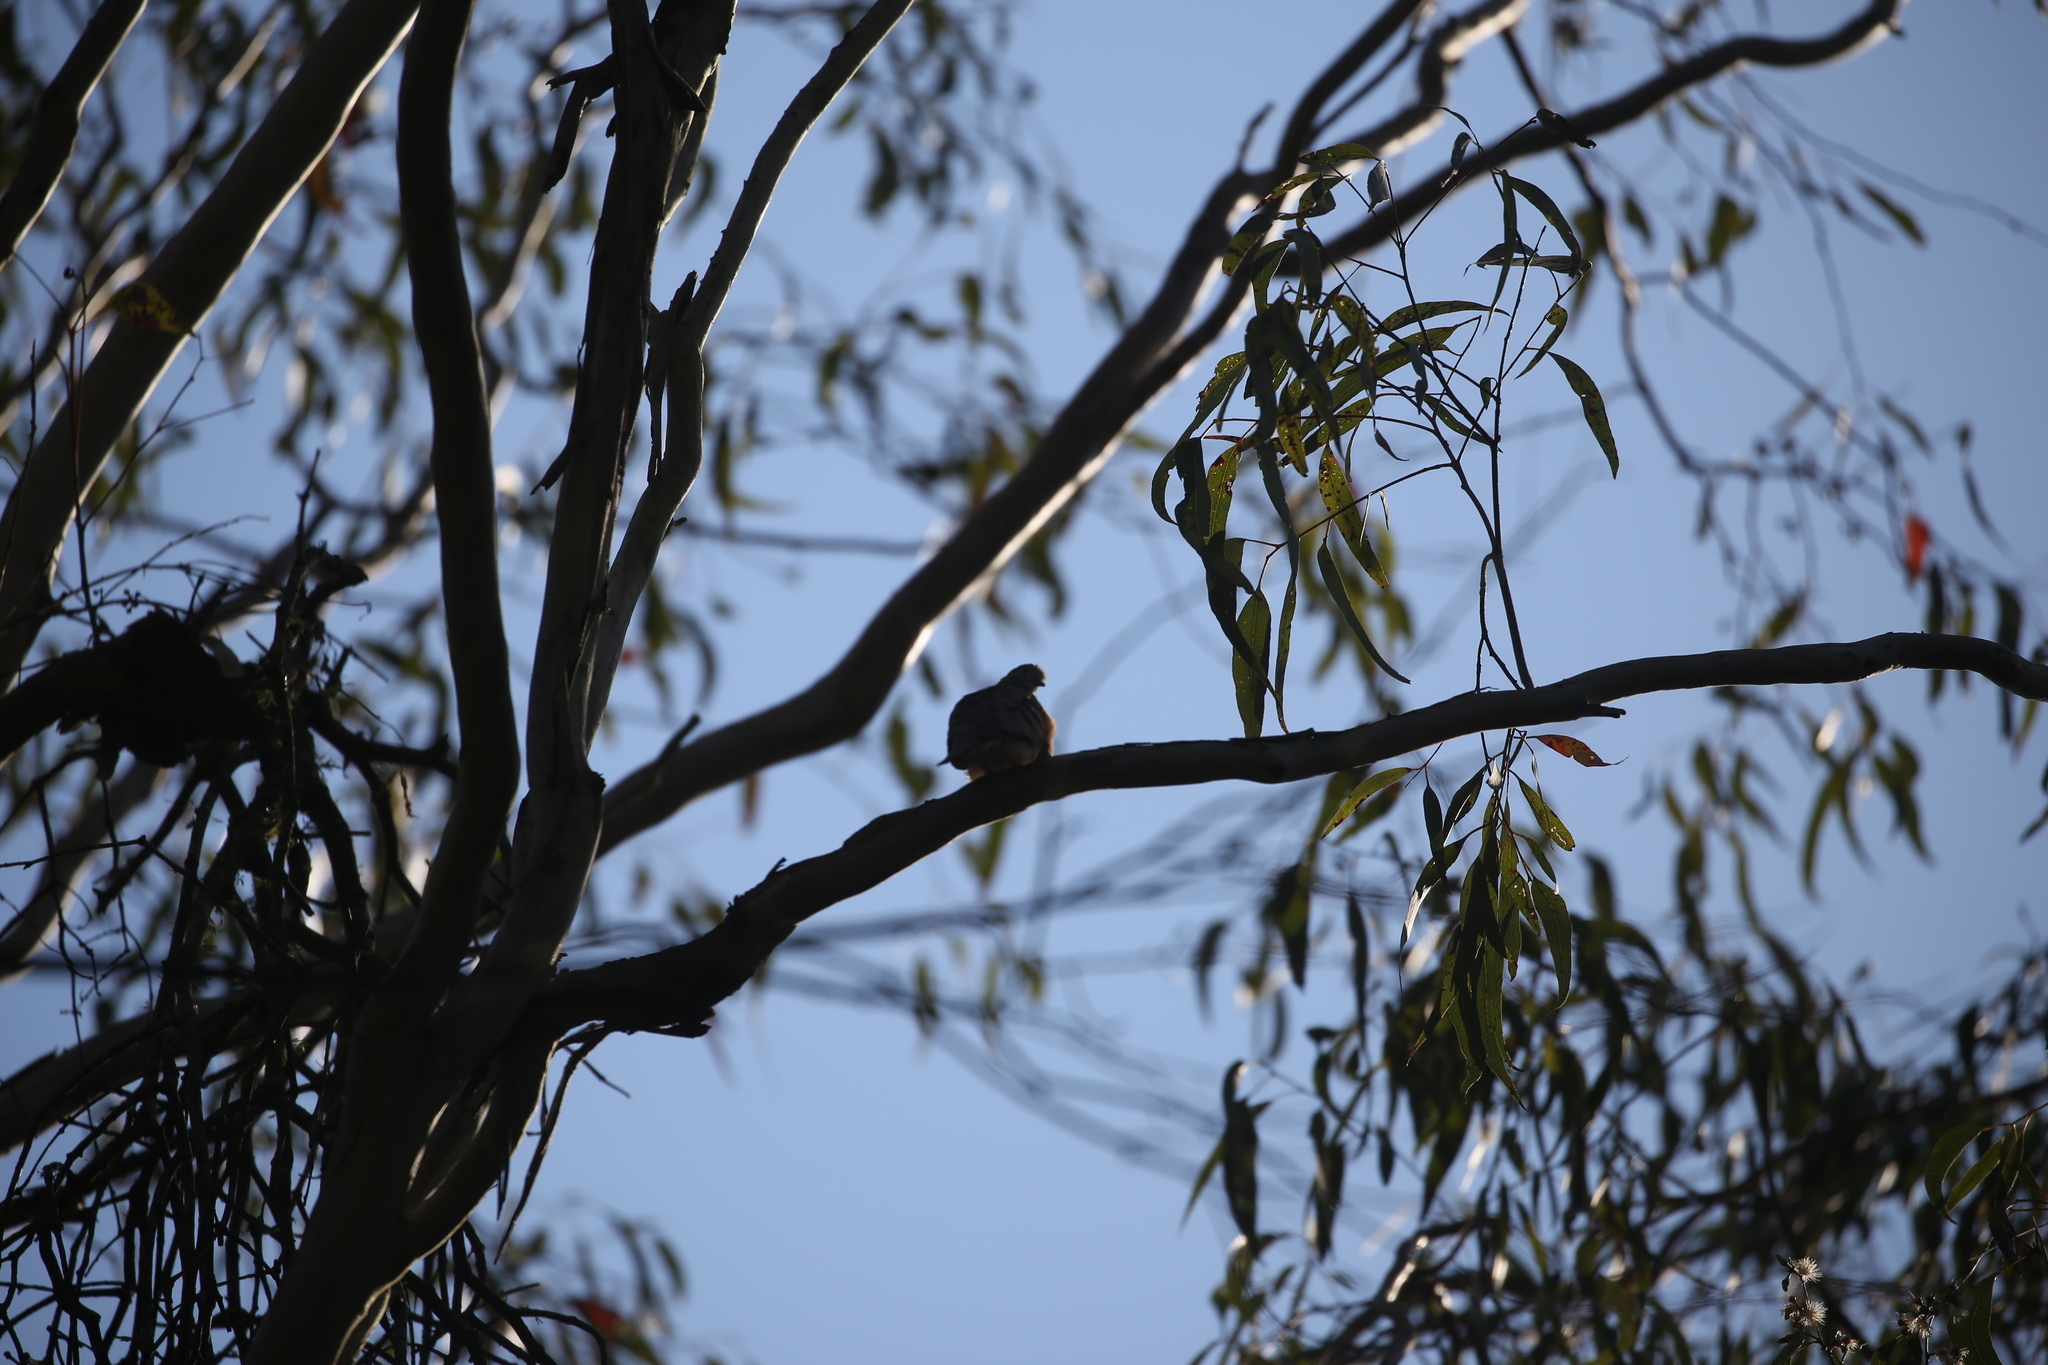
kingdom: Animalia
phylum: Chordata
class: Aves
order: Columbiformes
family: Columbidae
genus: Geopelia
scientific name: Geopelia placida
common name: Peaceful dove
